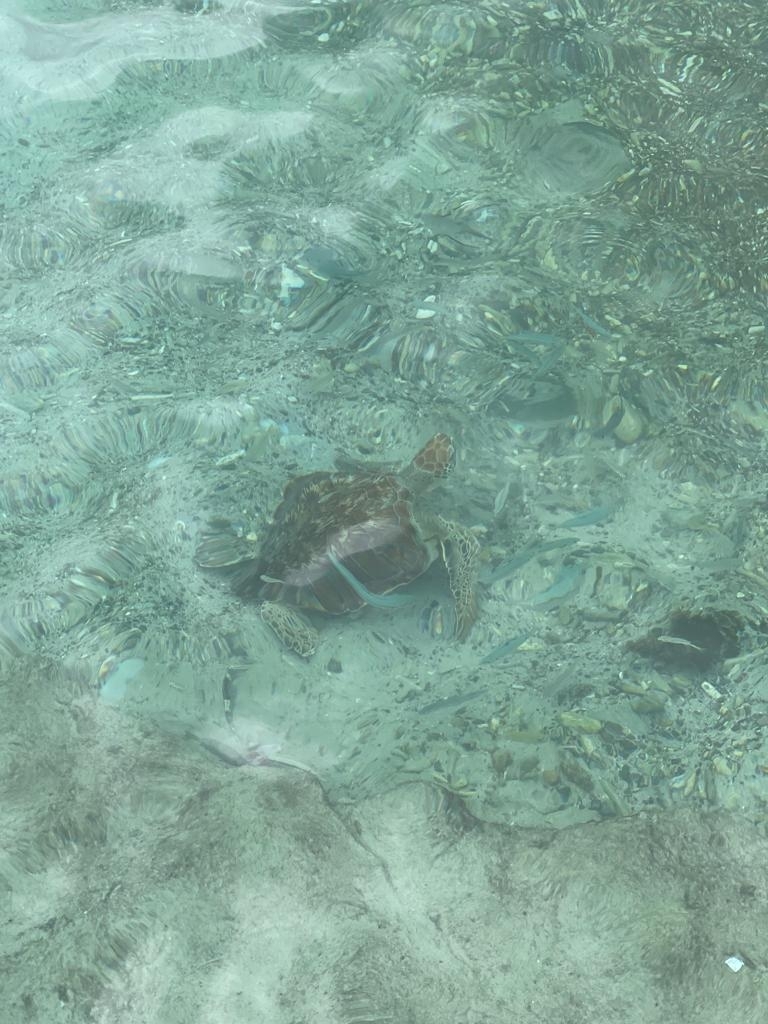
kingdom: Animalia
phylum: Chordata
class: Testudines
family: Cheloniidae
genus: Chelonia
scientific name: Chelonia mydas
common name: Green turtle
